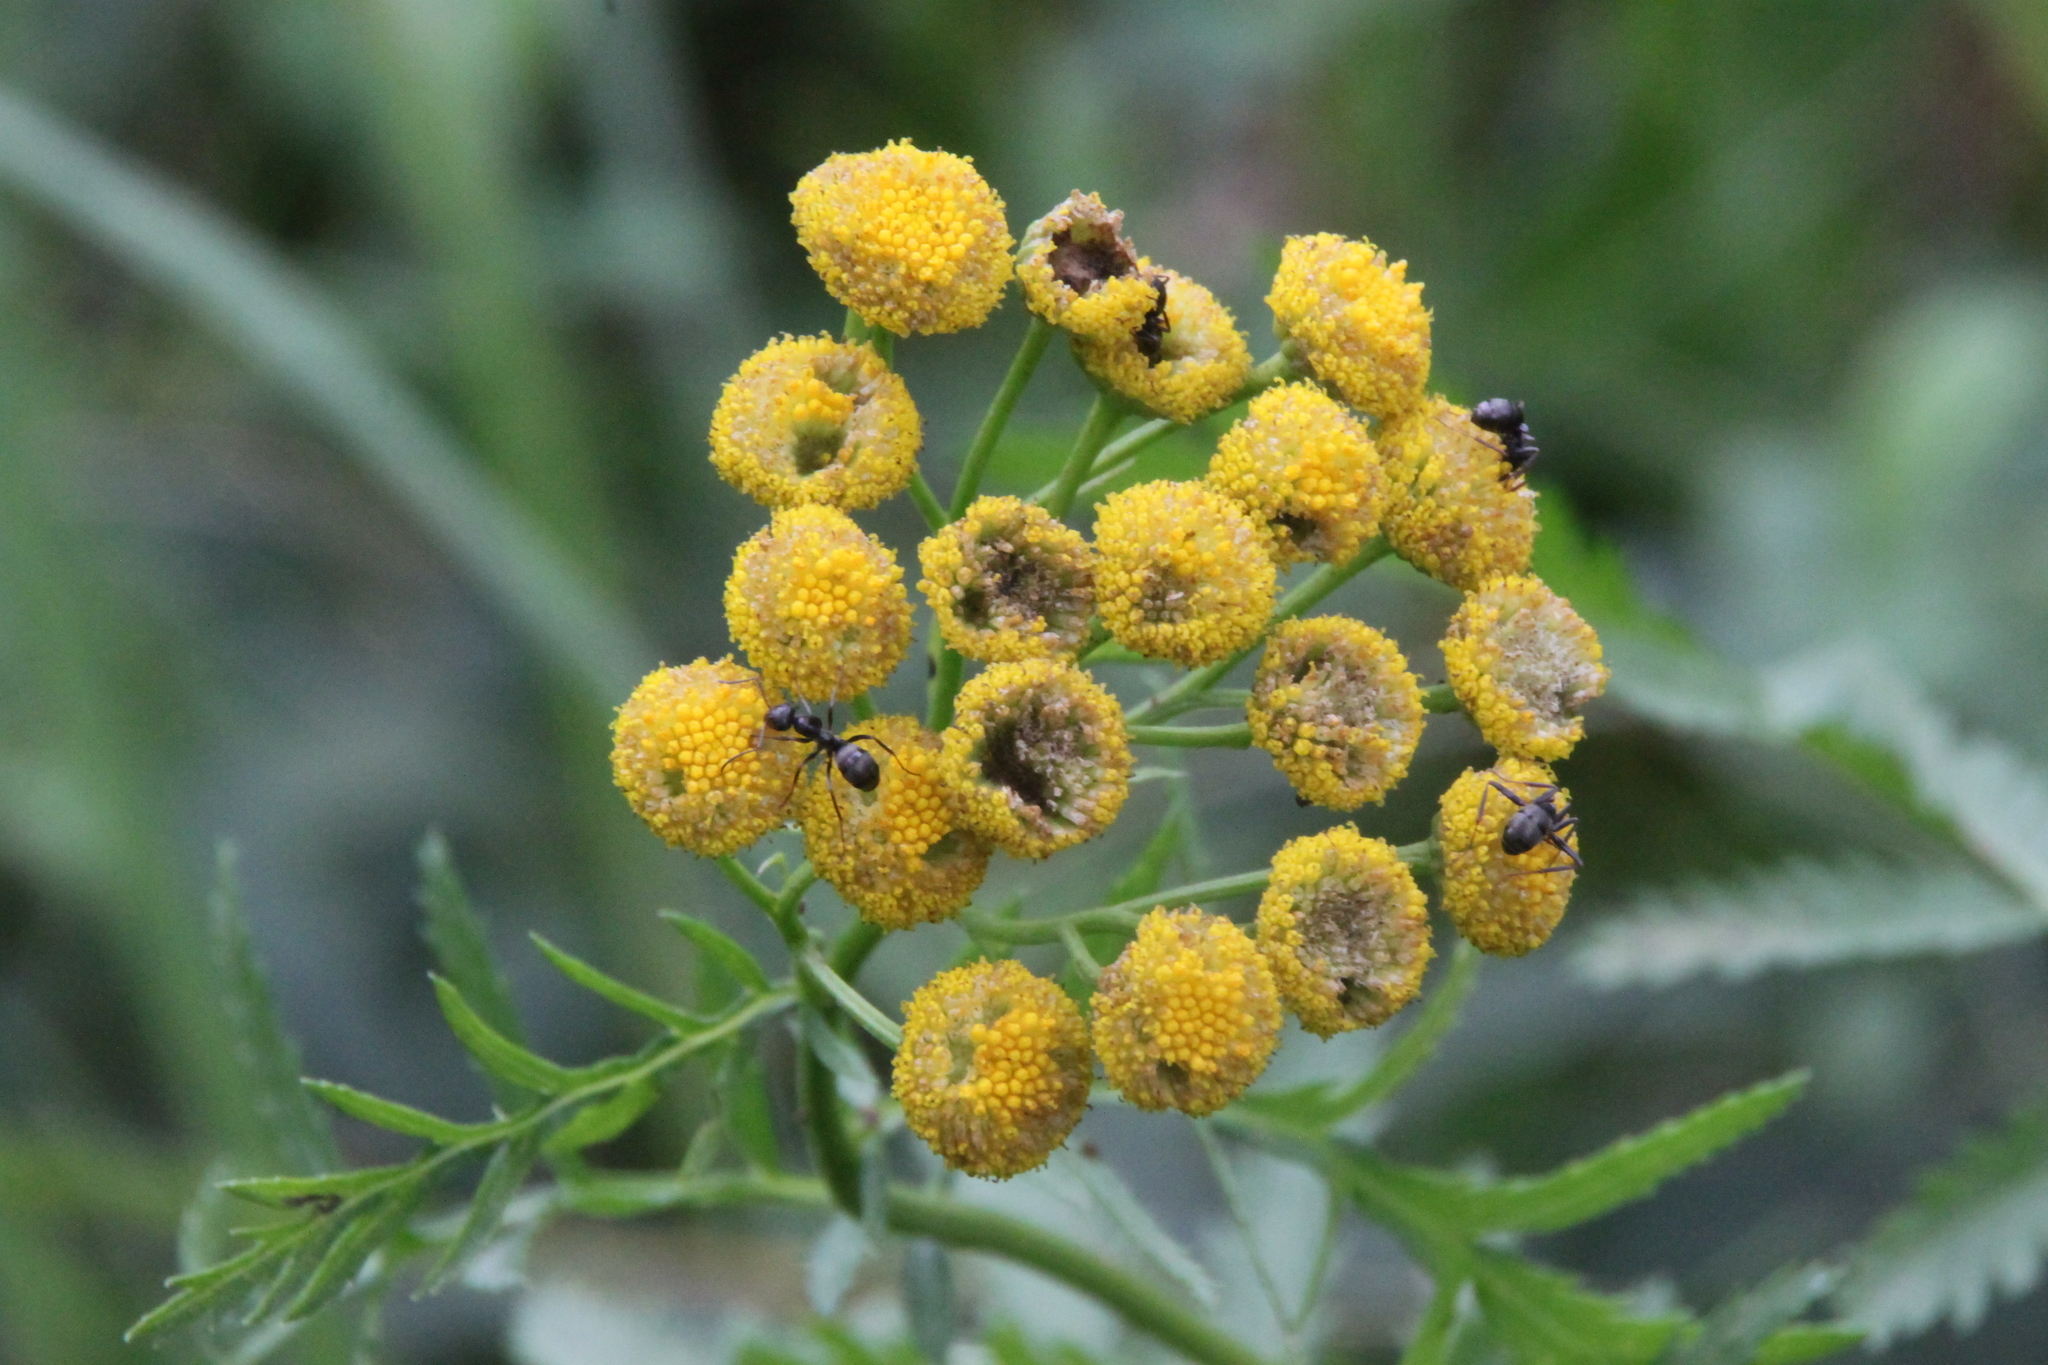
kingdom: Plantae
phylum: Tracheophyta
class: Magnoliopsida
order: Asterales
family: Asteraceae
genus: Tanacetum
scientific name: Tanacetum vulgare
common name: Common tansy
